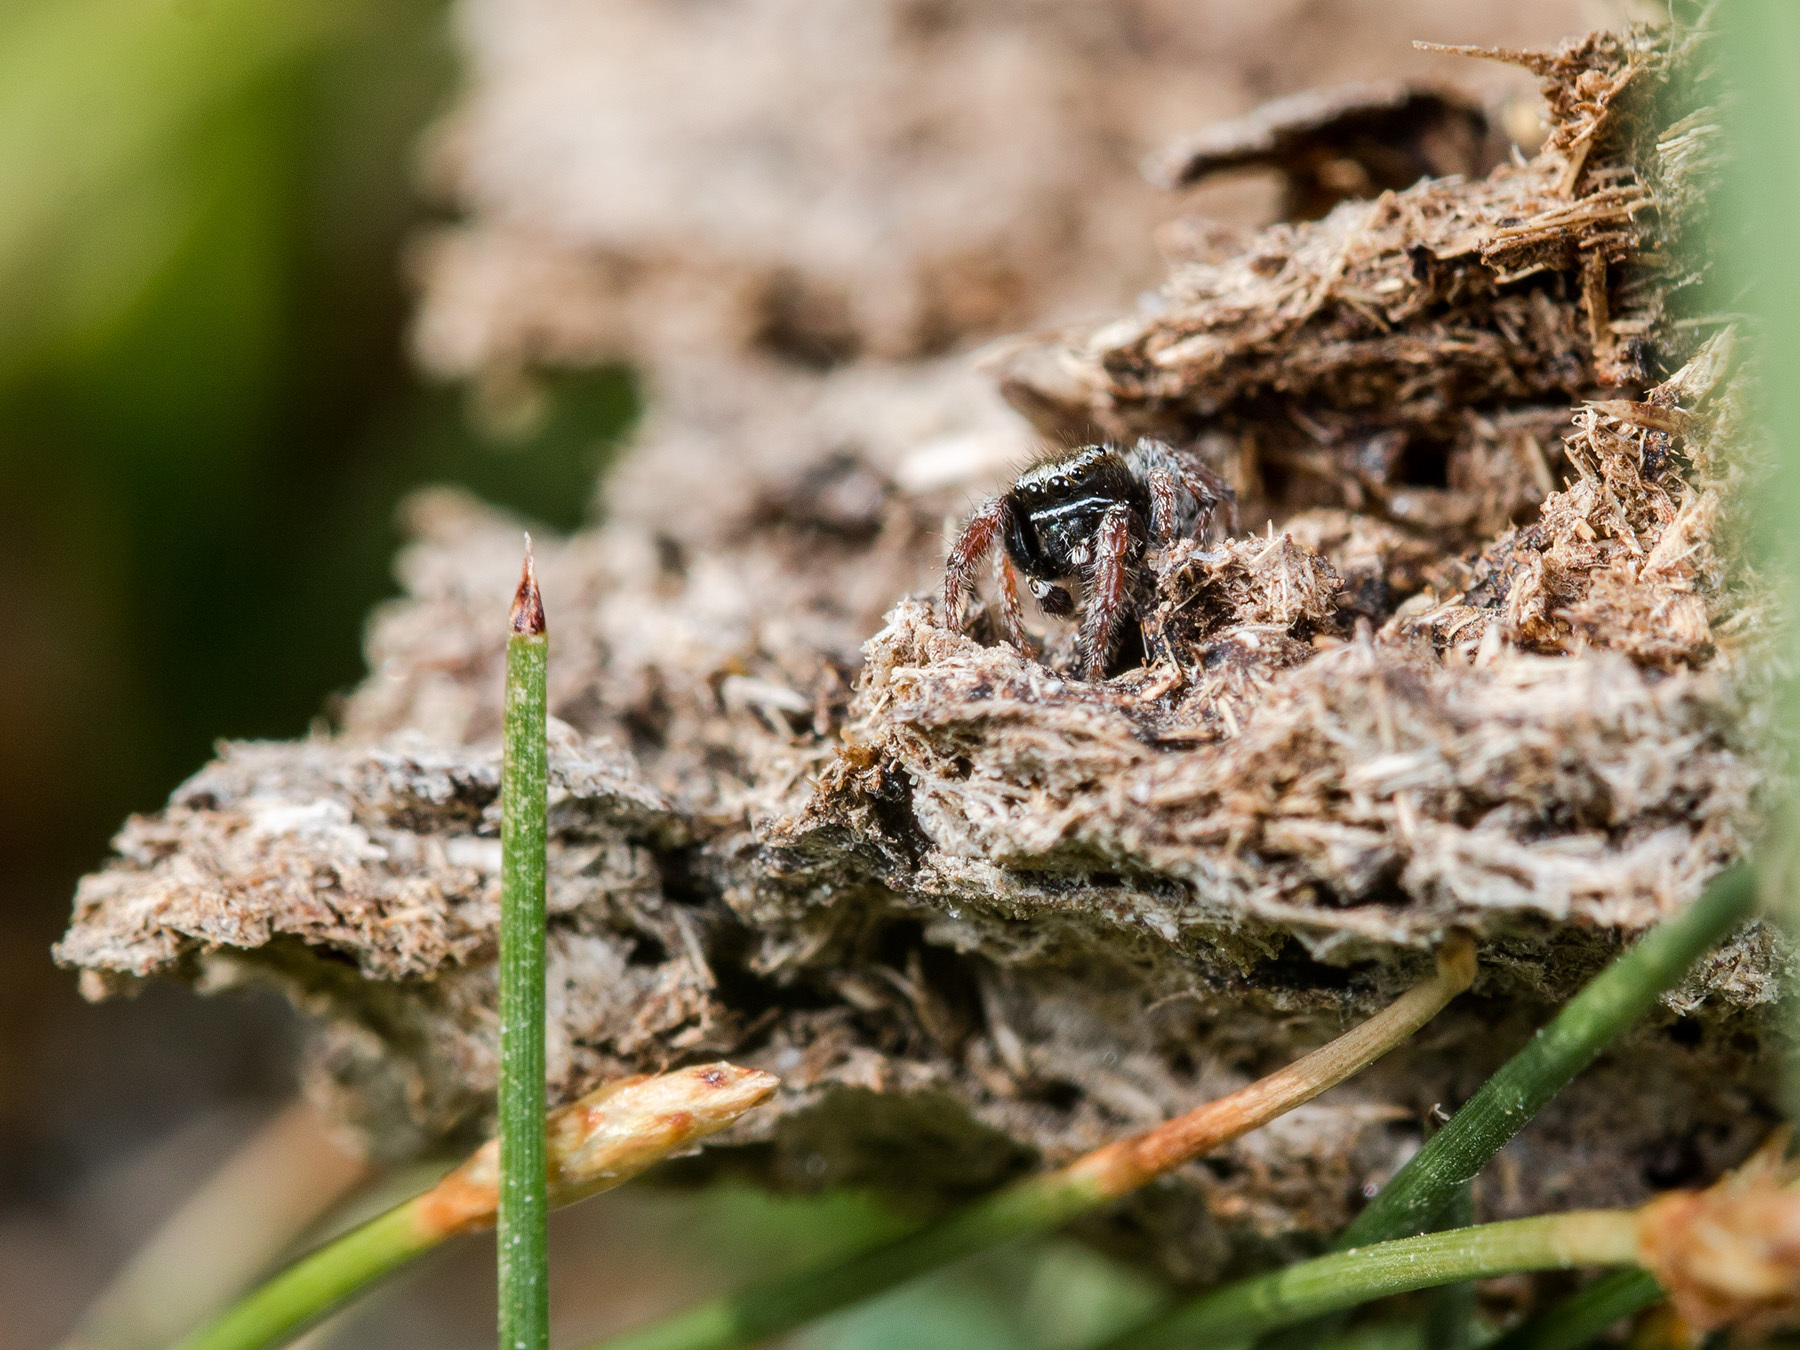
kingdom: Animalia
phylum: Arthropoda
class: Arachnida
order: Araneae
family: Salticidae
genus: Pellenes
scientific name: Pellenes epularis
